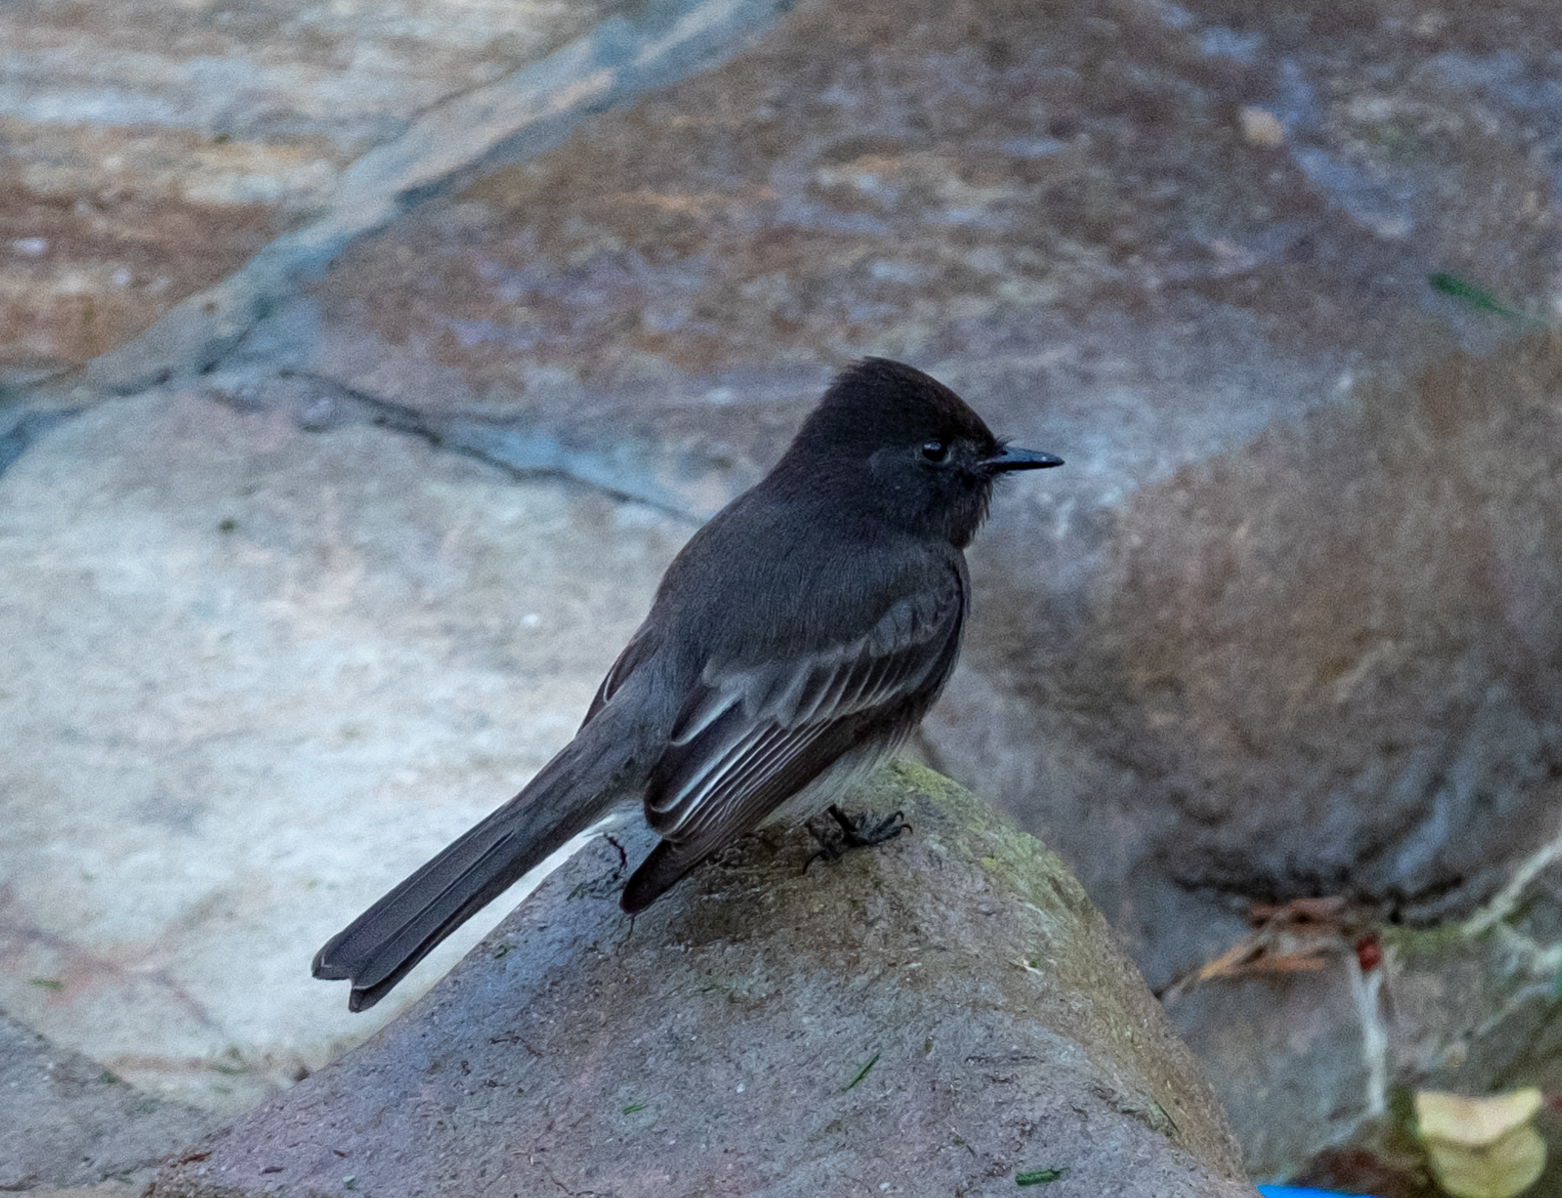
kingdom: Animalia
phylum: Chordata
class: Aves
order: Passeriformes
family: Tyrannidae
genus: Sayornis
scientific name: Sayornis nigricans
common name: Black phoebe
